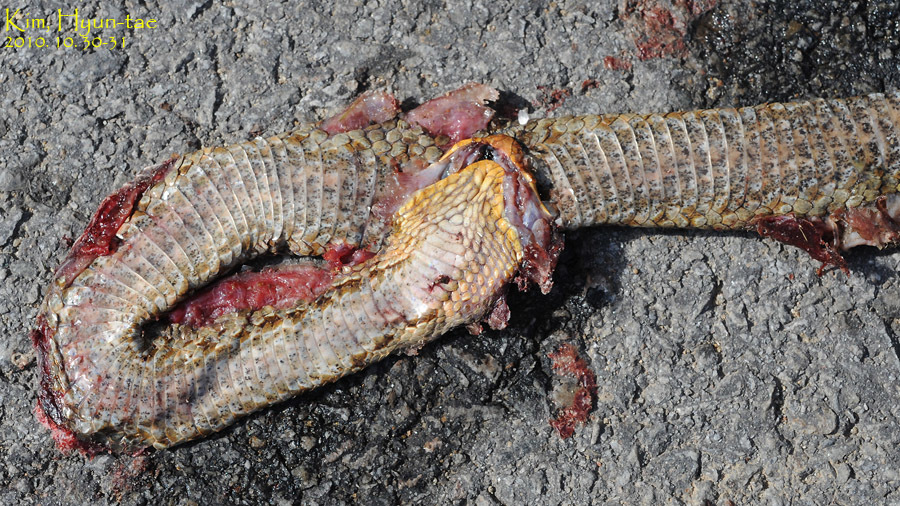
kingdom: Animalia
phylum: Chordata
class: Squamata
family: Viperidae
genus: Gloydius
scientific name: Gloydius ussuriensis
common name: Ussuri mamushi
